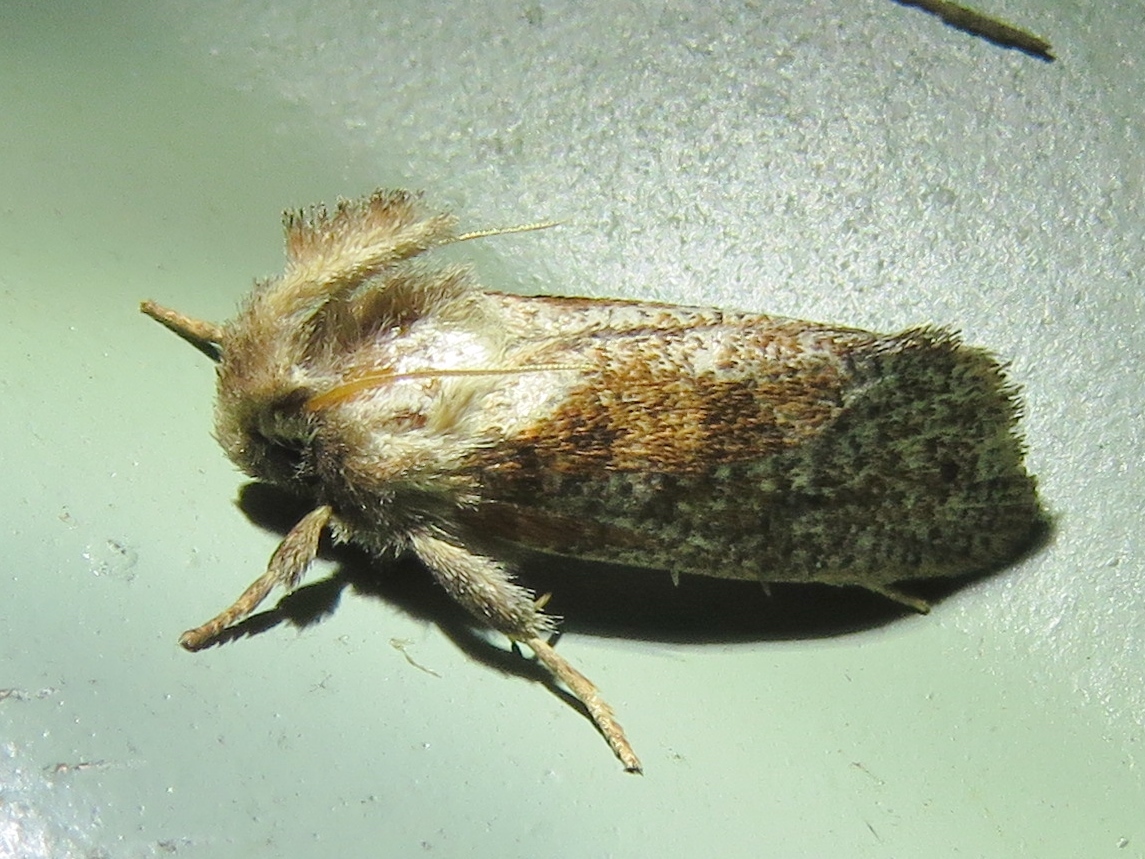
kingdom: Animalia
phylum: Arthropoda
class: Insecta
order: Lepidoptera
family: Tineidae
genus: Acrolophus
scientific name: Acrolophus plumifrontella
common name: Eastern grass tubeworm moth
